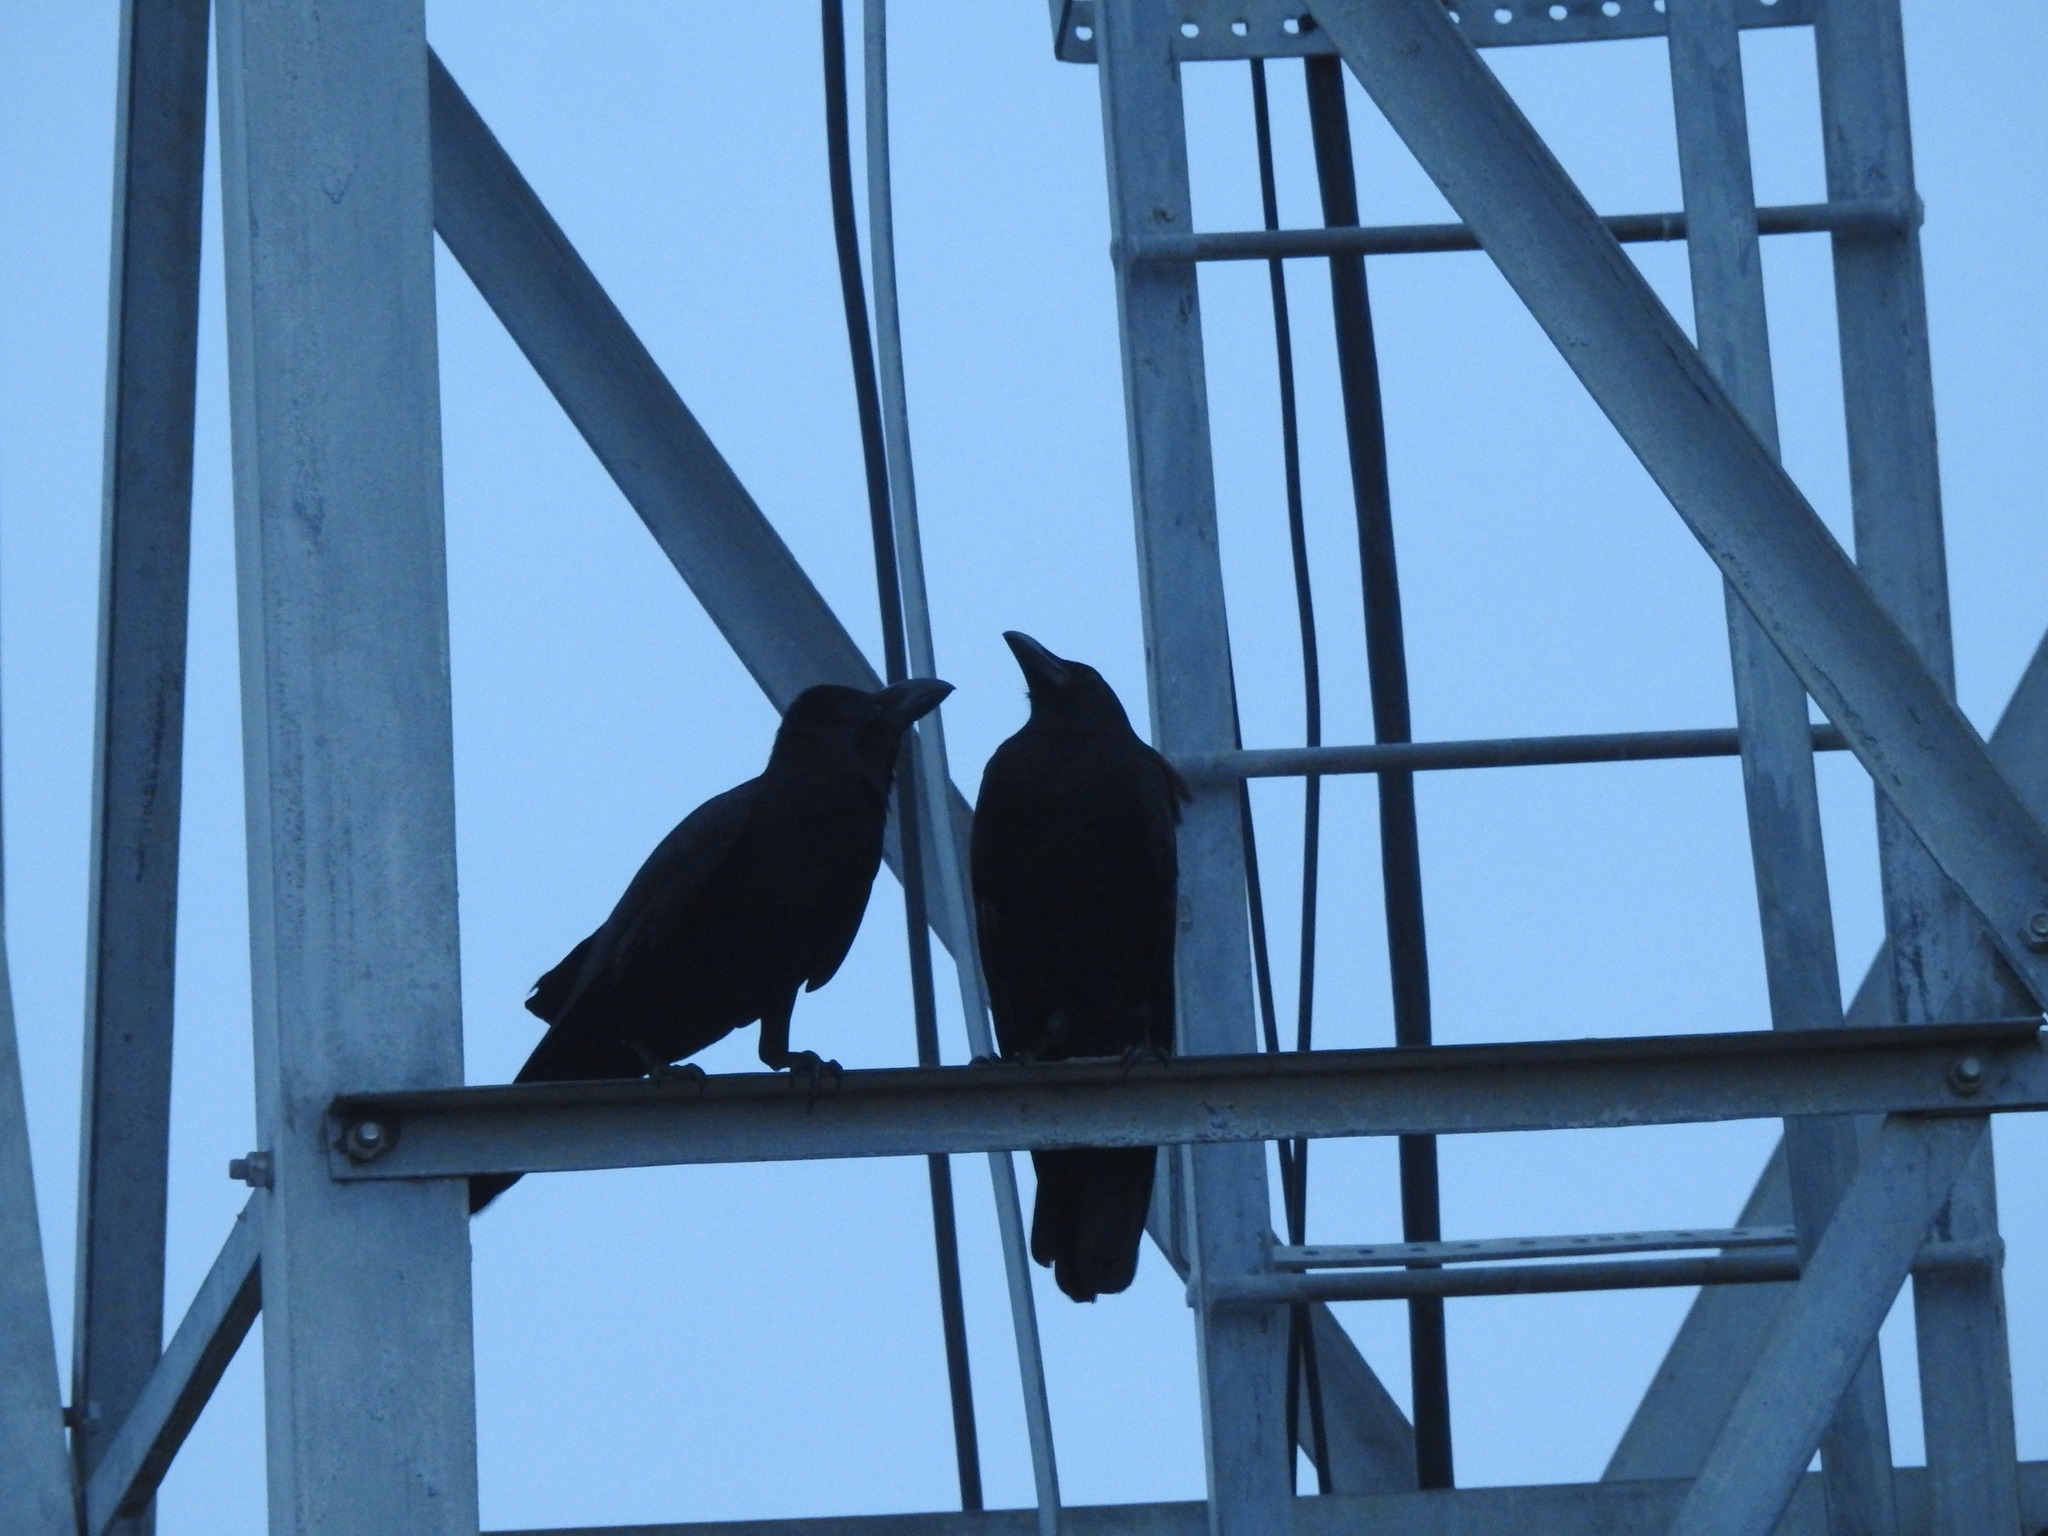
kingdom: Animalia
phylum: Chordata
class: Aves
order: Passeriformes
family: Corvidae
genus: Corvus
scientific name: Corvus macrorhynchos
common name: Large-billed crow
